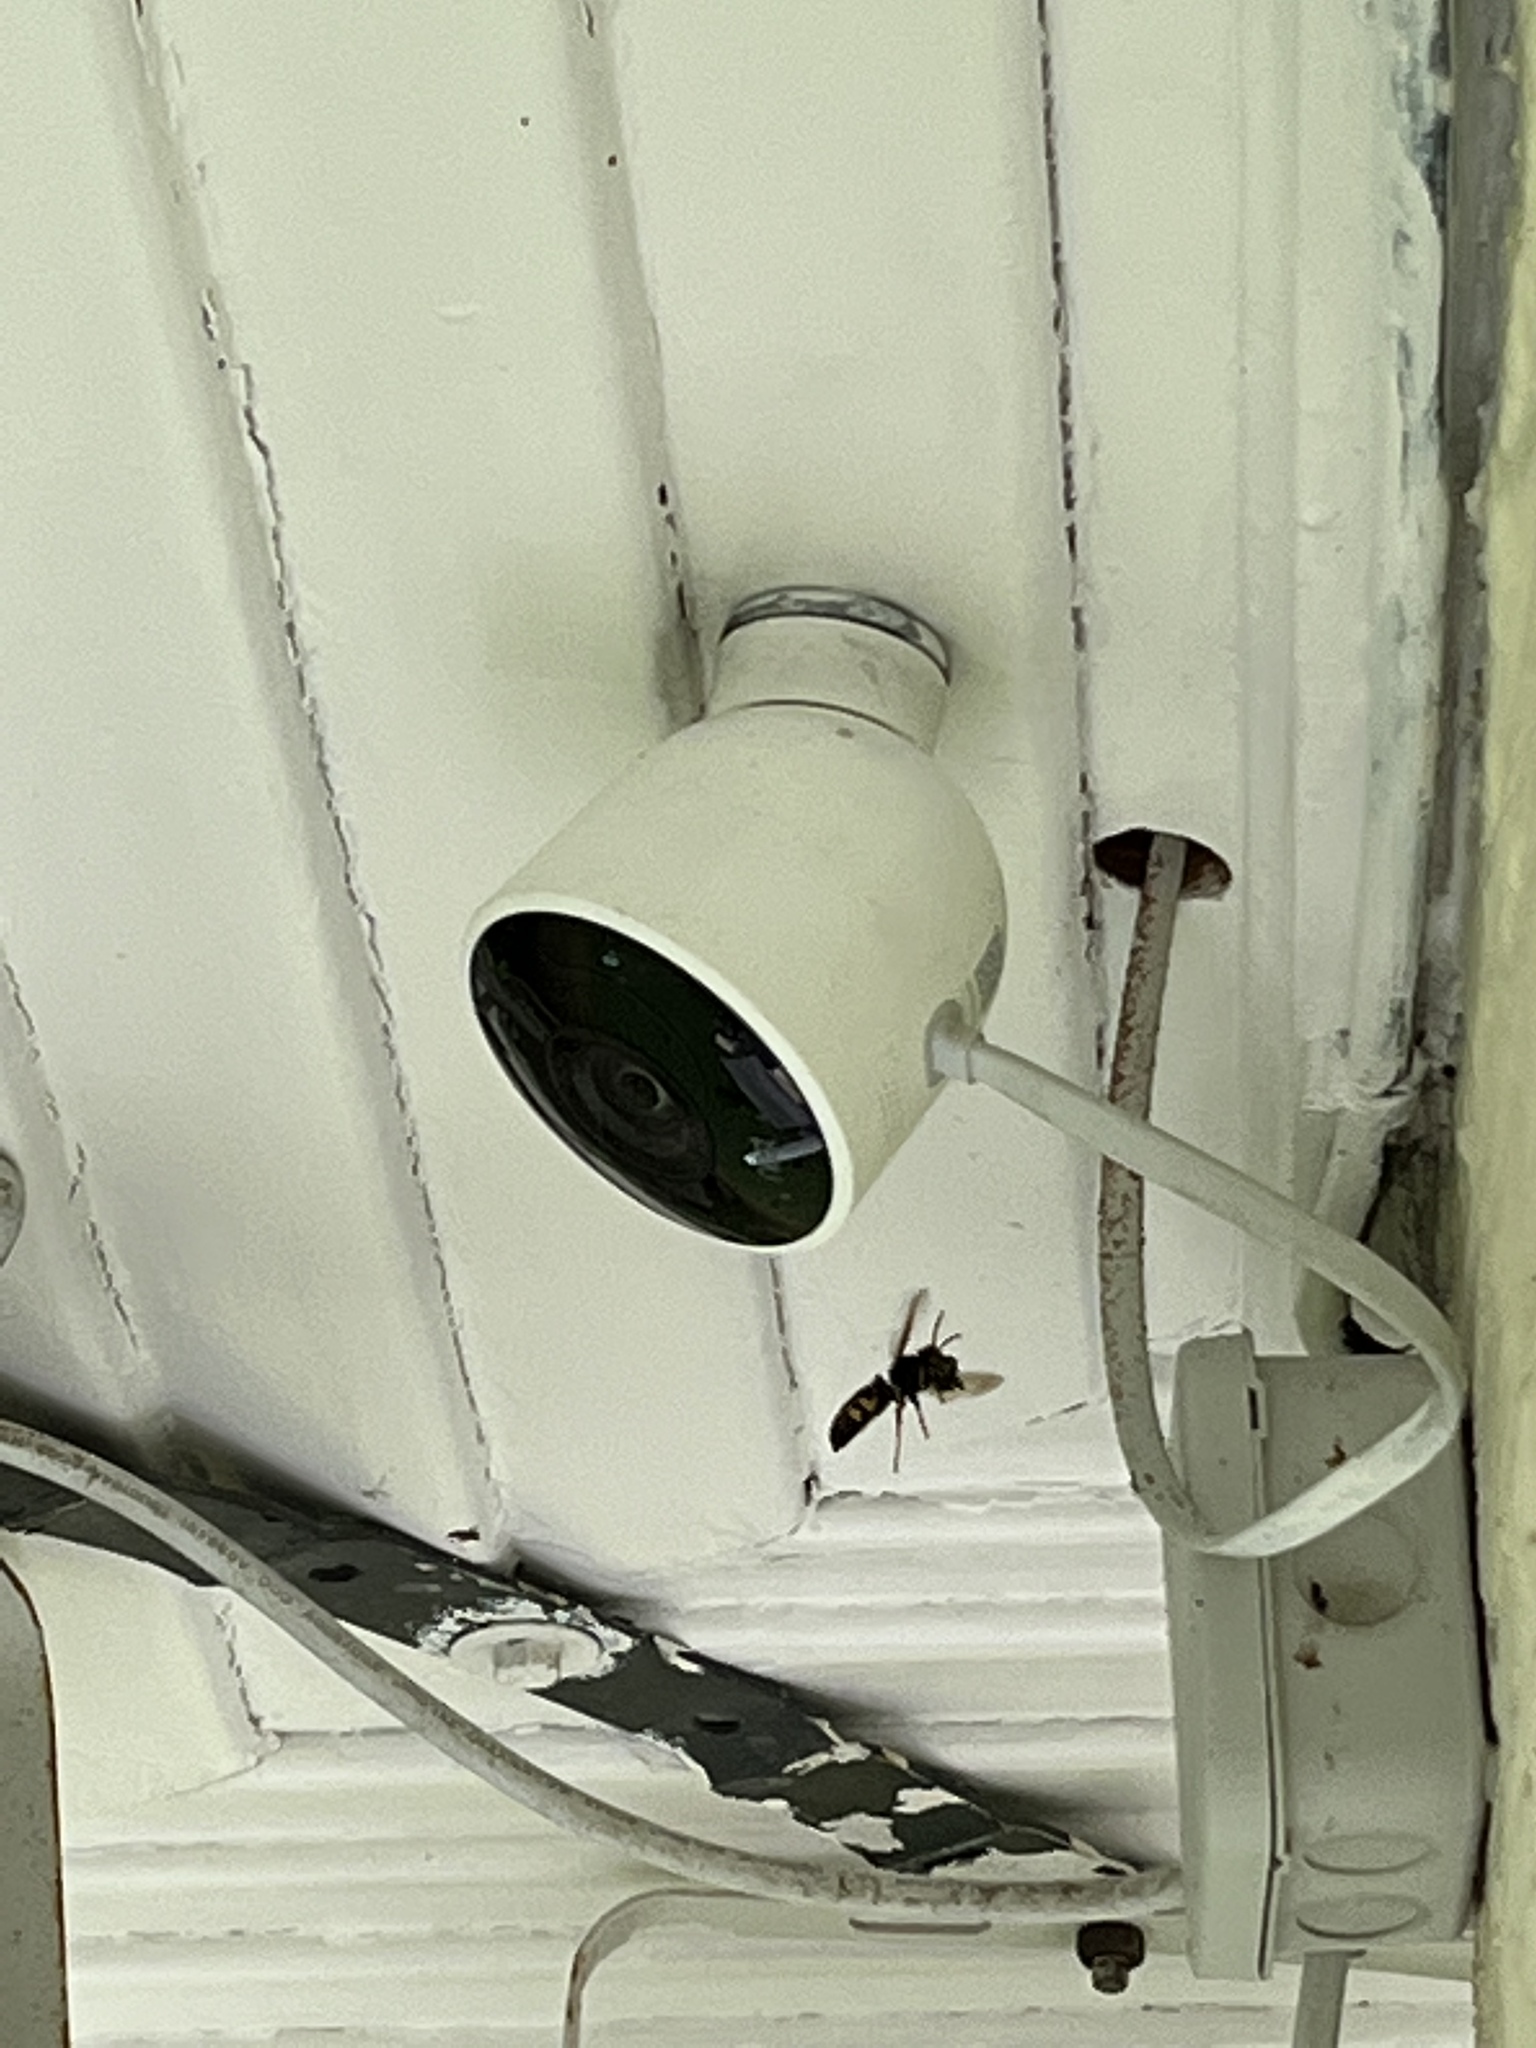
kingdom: Animalia
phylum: Arthropoda
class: Insecta
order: Hymenoptera
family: Vespidae
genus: Vespa
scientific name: Vespa velutina
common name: Asian hornet
